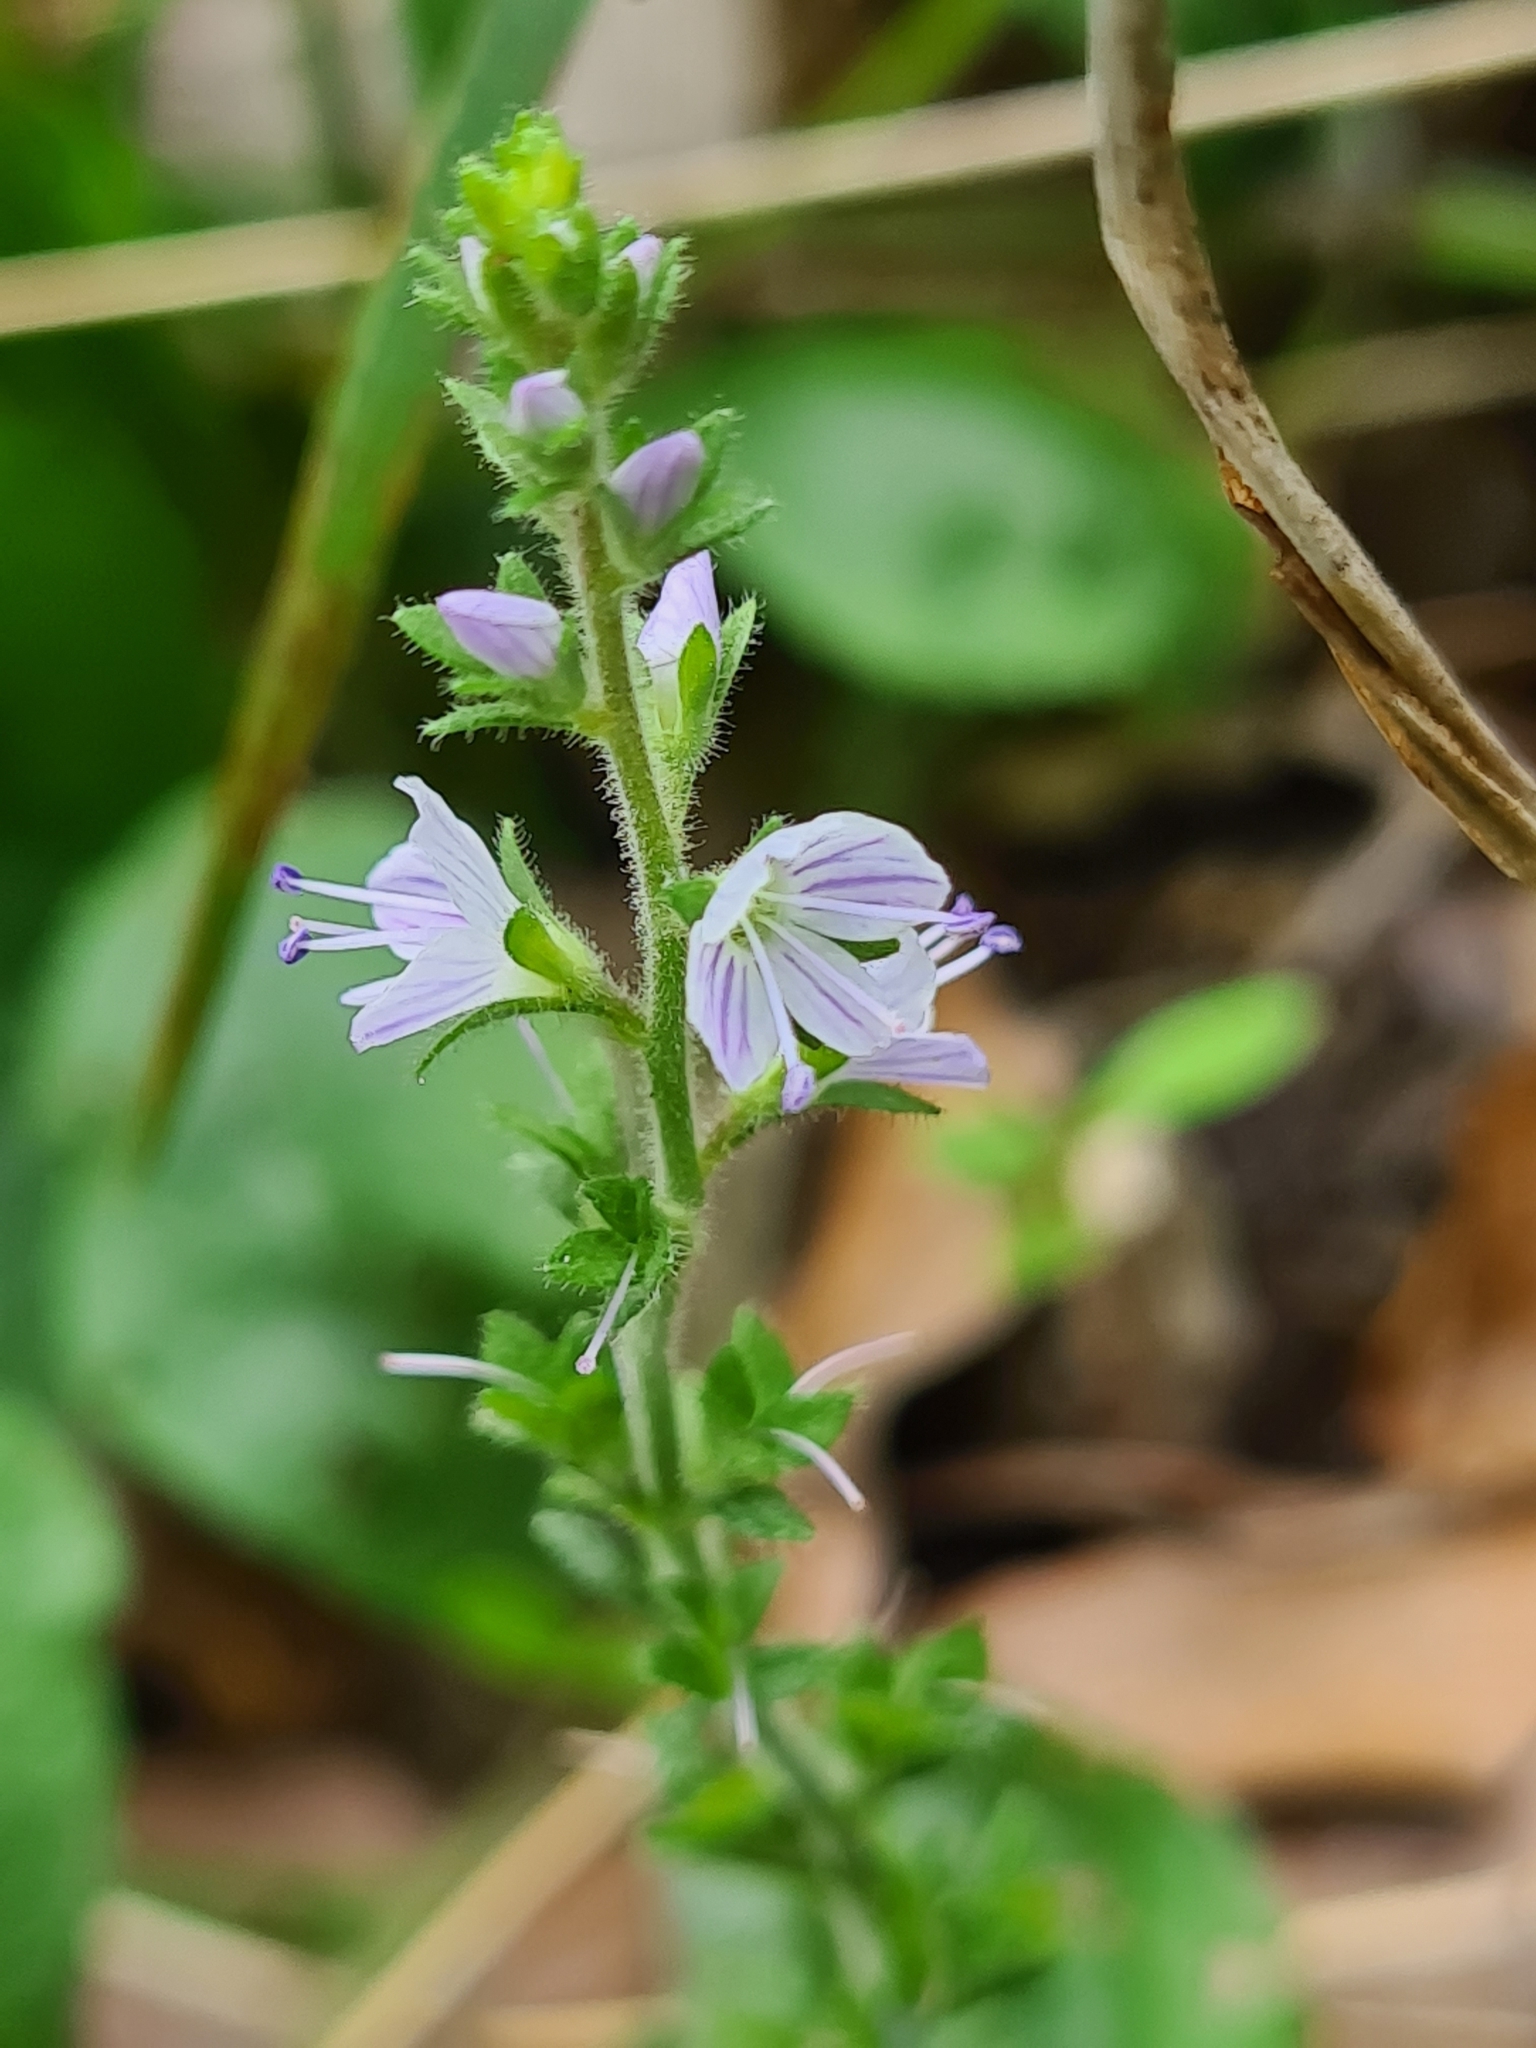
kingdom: Plantae
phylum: Tracheophyta
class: Magnoliopsida
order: Lamiales
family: Plantaginaceae
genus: Veronica
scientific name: Veronica officinalis
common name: Common speedwell
